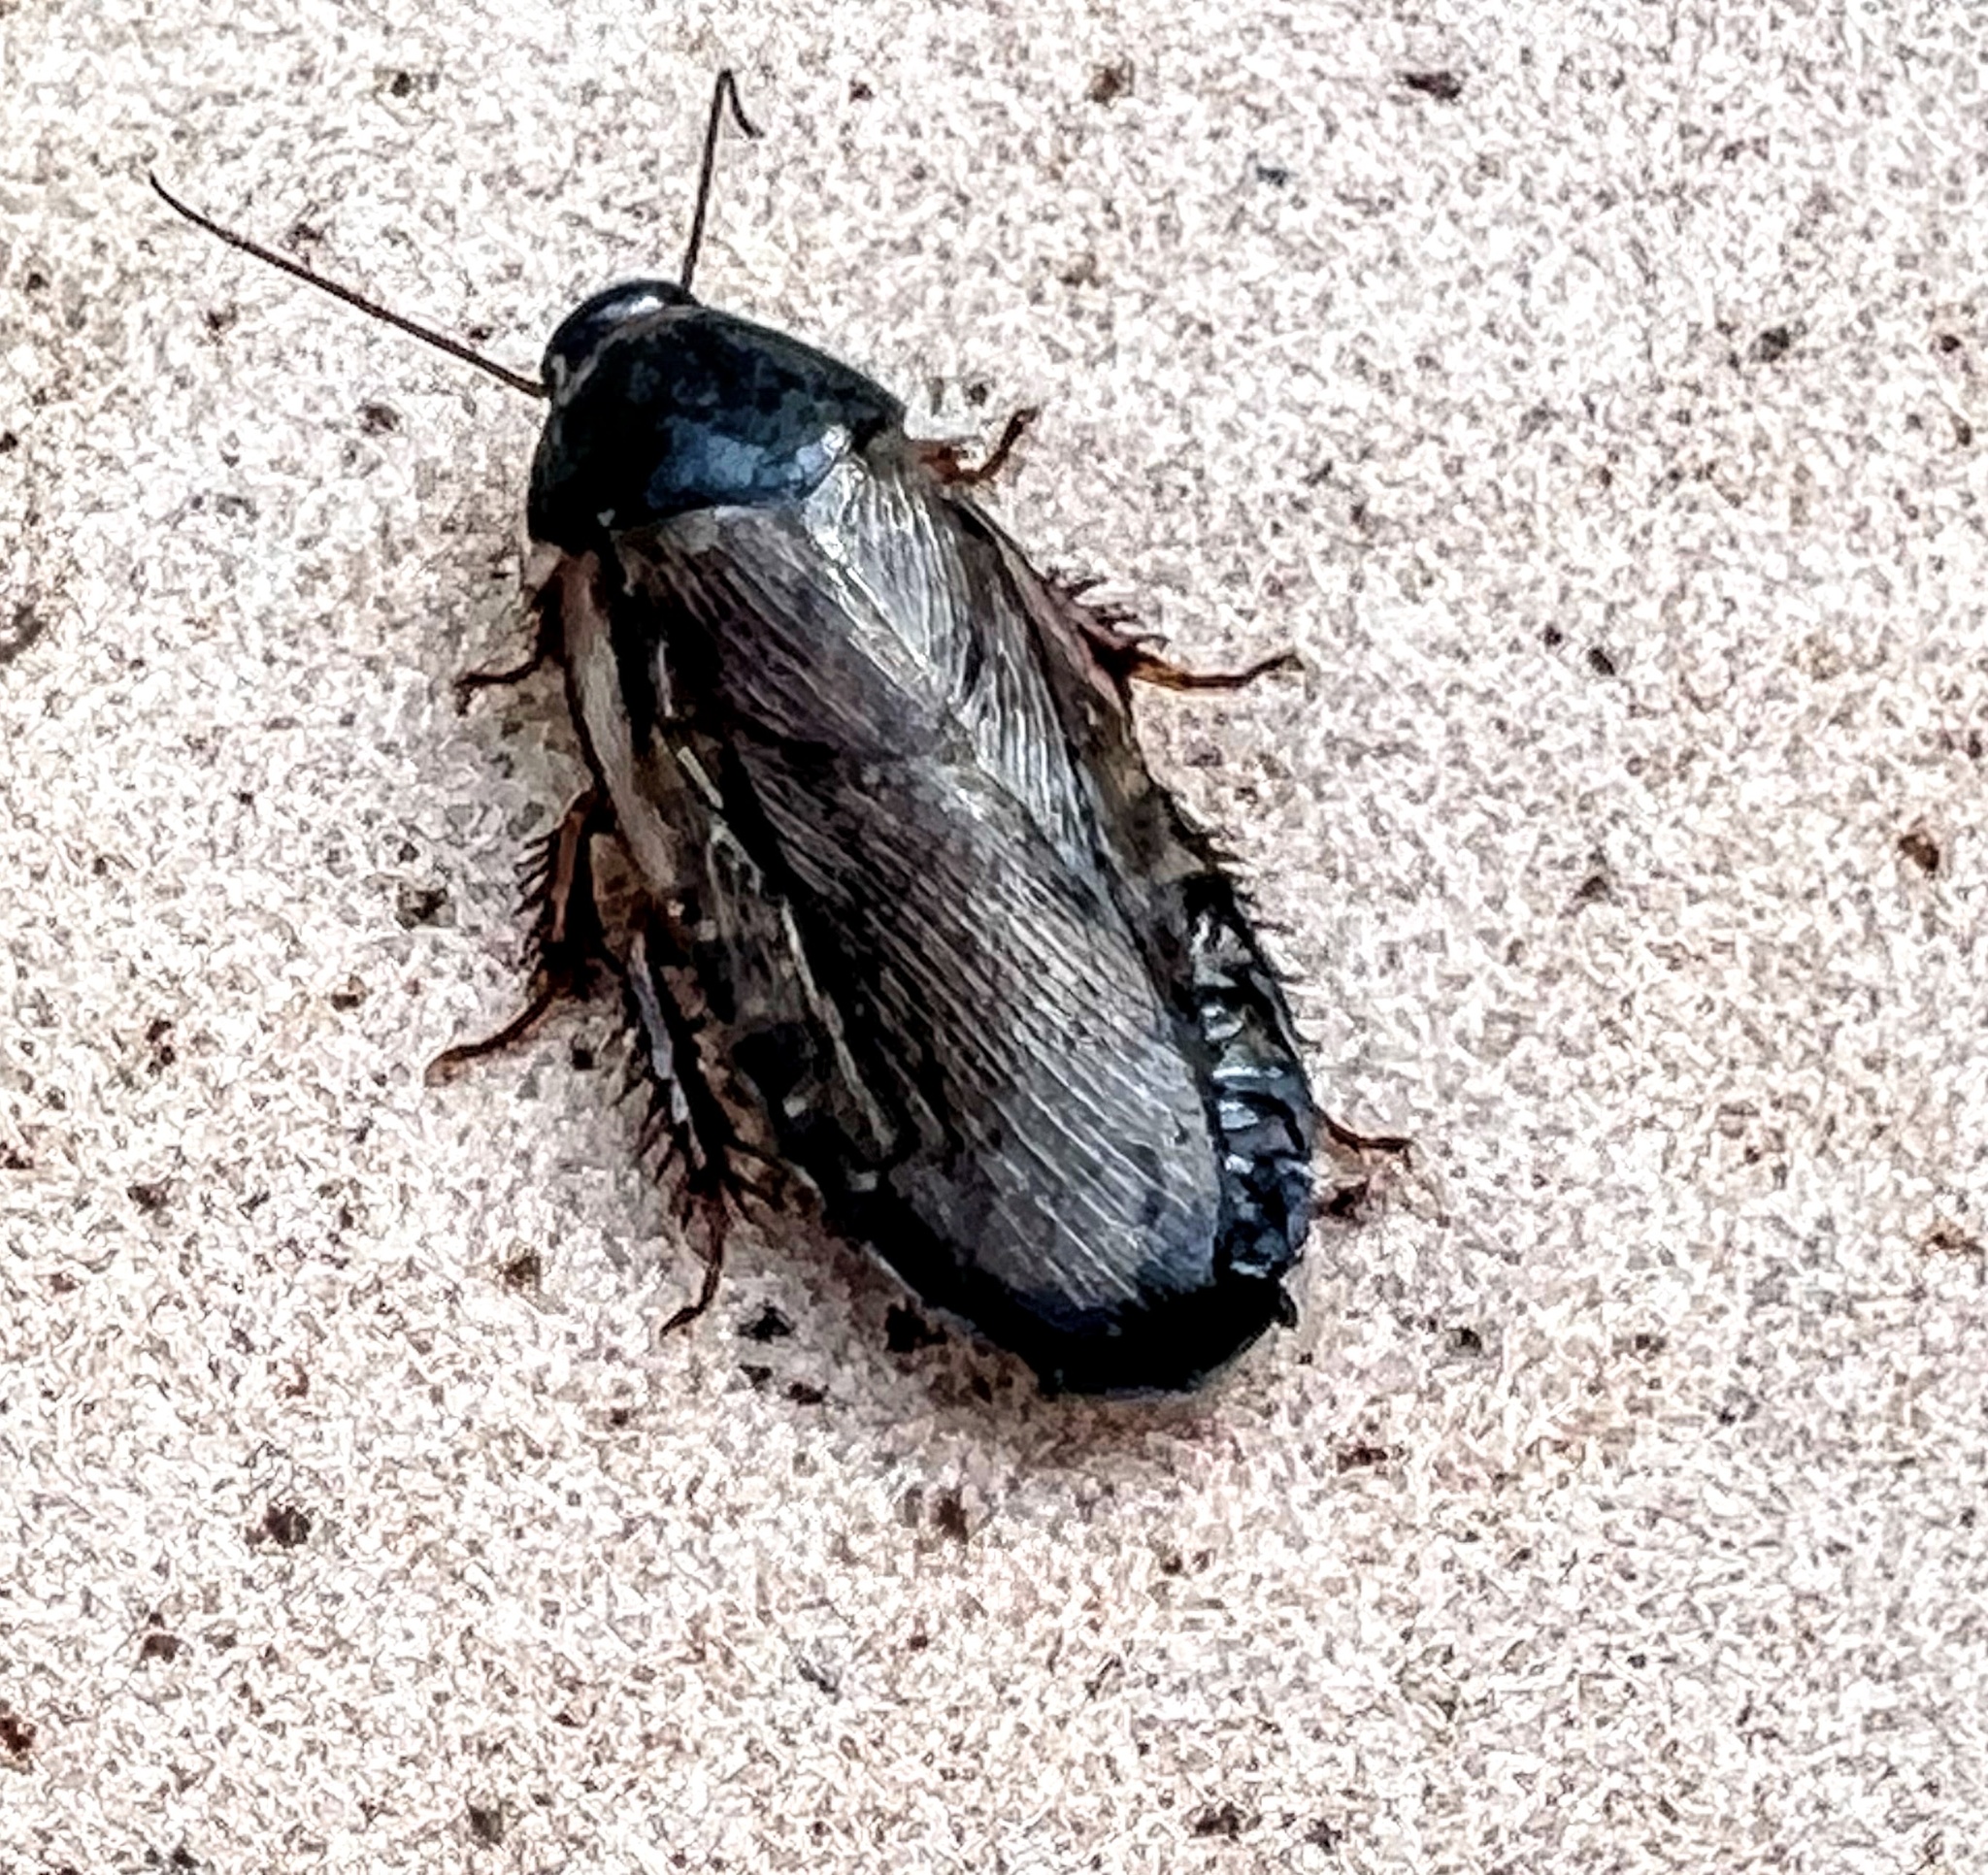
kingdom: Animalia
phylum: Arthropoda
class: Insecta
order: Blattodea
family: Blaberidae
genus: Pycnoscelus
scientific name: Pycnoscelus surinamensis
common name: Surinam cockroach
